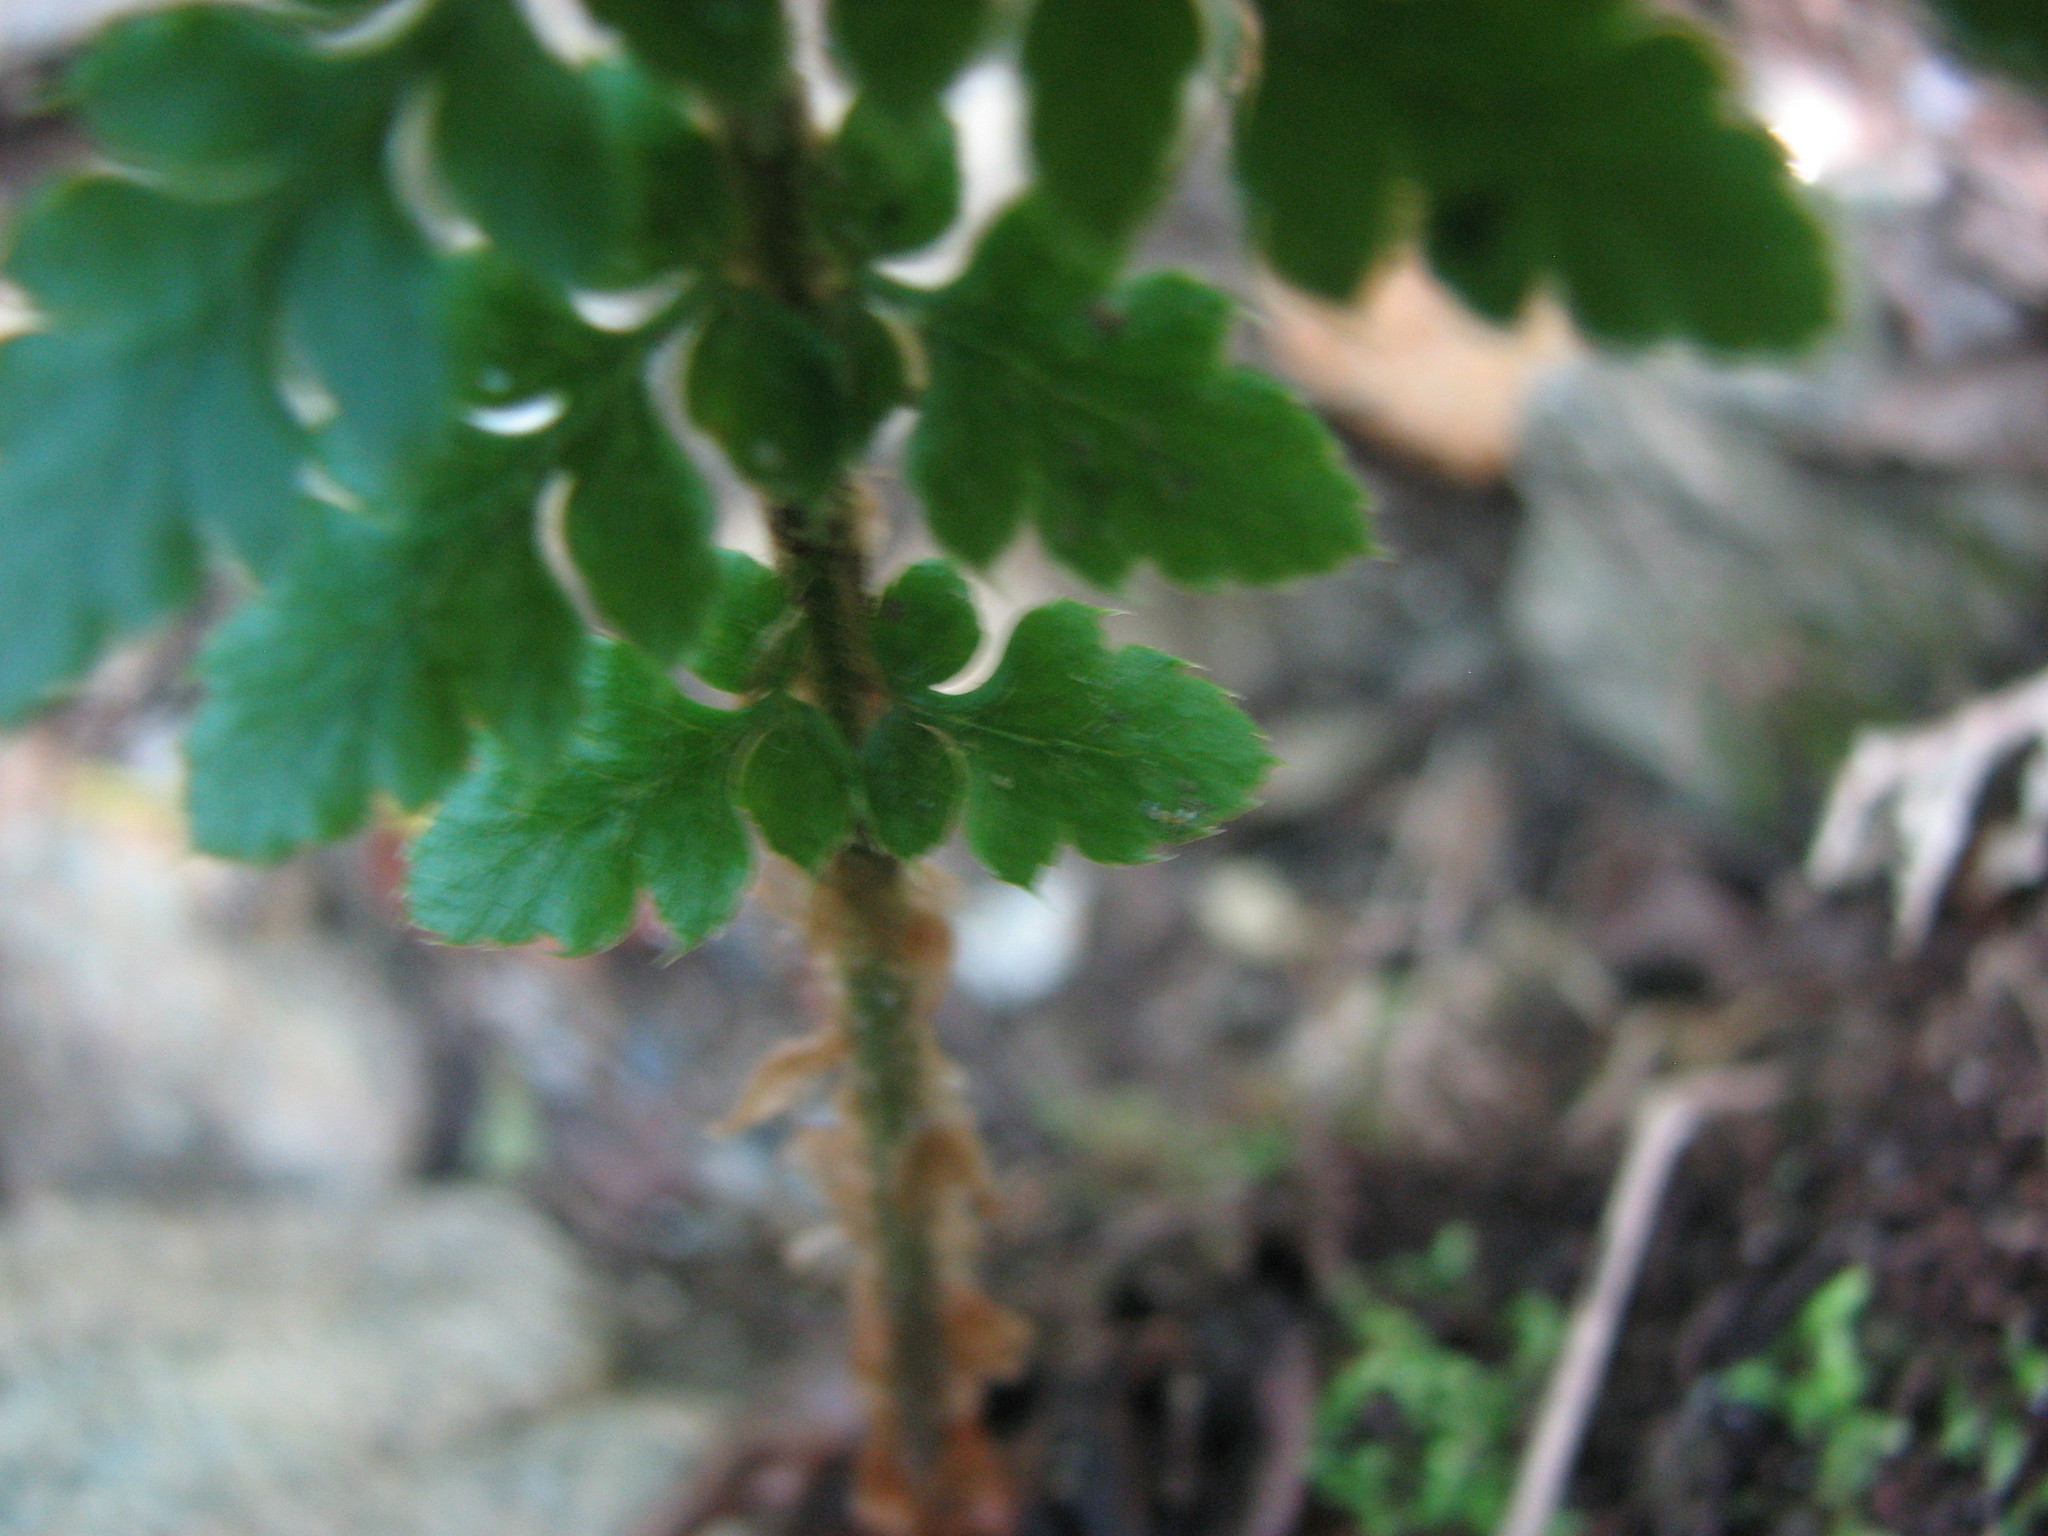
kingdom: Plantae
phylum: Tracheophyta
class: Polypodiopsida
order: Polypodiales
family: Dryopteridaceae
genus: Polystichum
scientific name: Polystichum braunii
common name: Braun's holly fern
